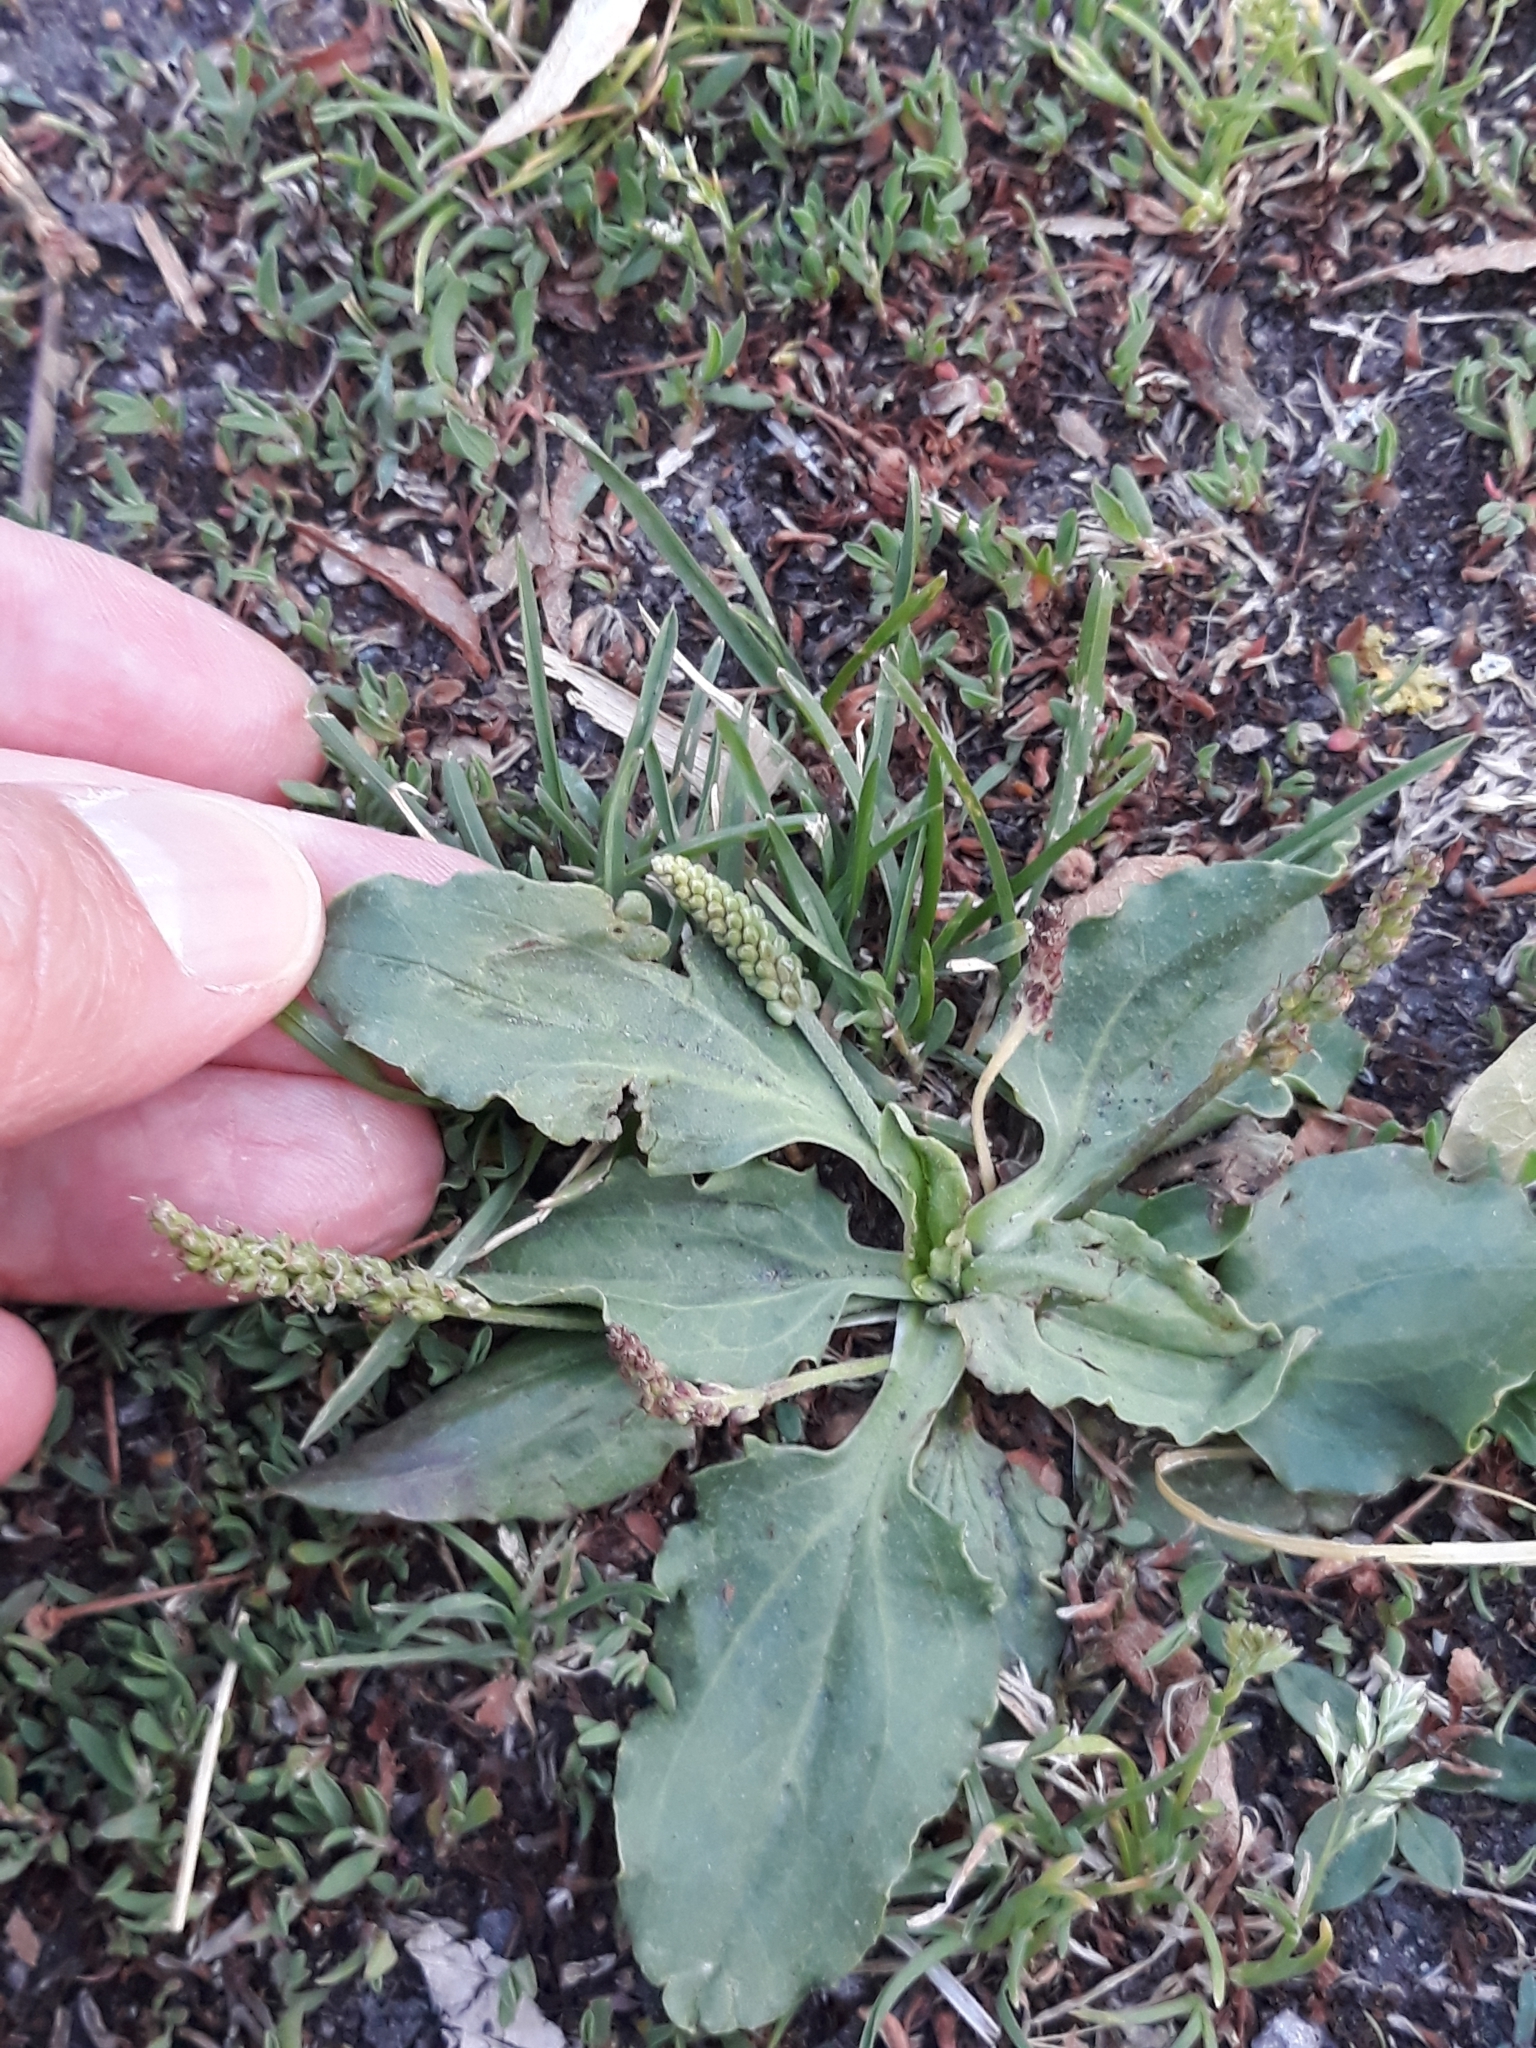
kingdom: Plantae
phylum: Tracheophyta
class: Magnoliopsida
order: Lamiales
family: Plantaginaceae
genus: Plantago
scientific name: Plantago major
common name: Common plantain
